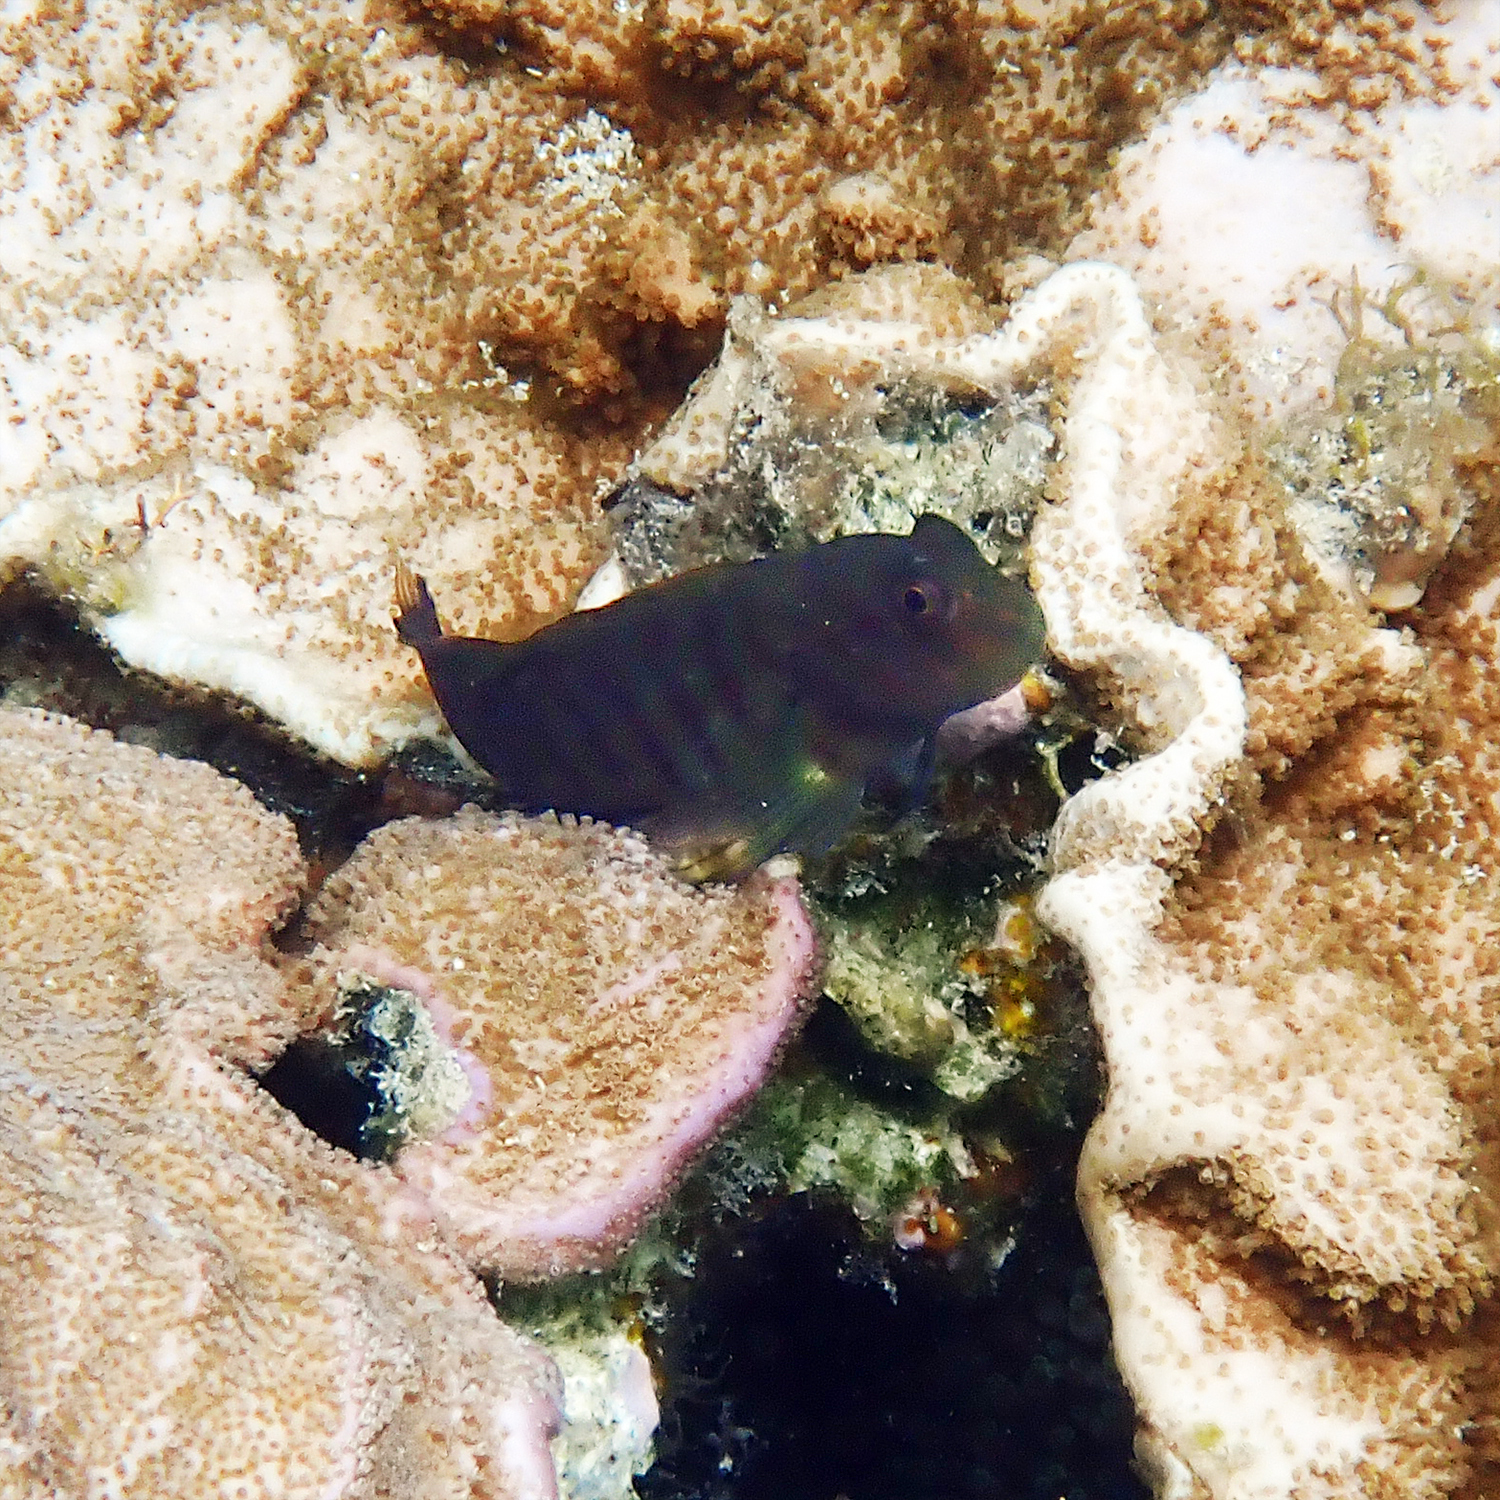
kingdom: Animalia
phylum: Chordata
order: Perciformes
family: Blenniidae
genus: Cirripectes
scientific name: Cirripectes castaneus
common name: Chestnut blenny
